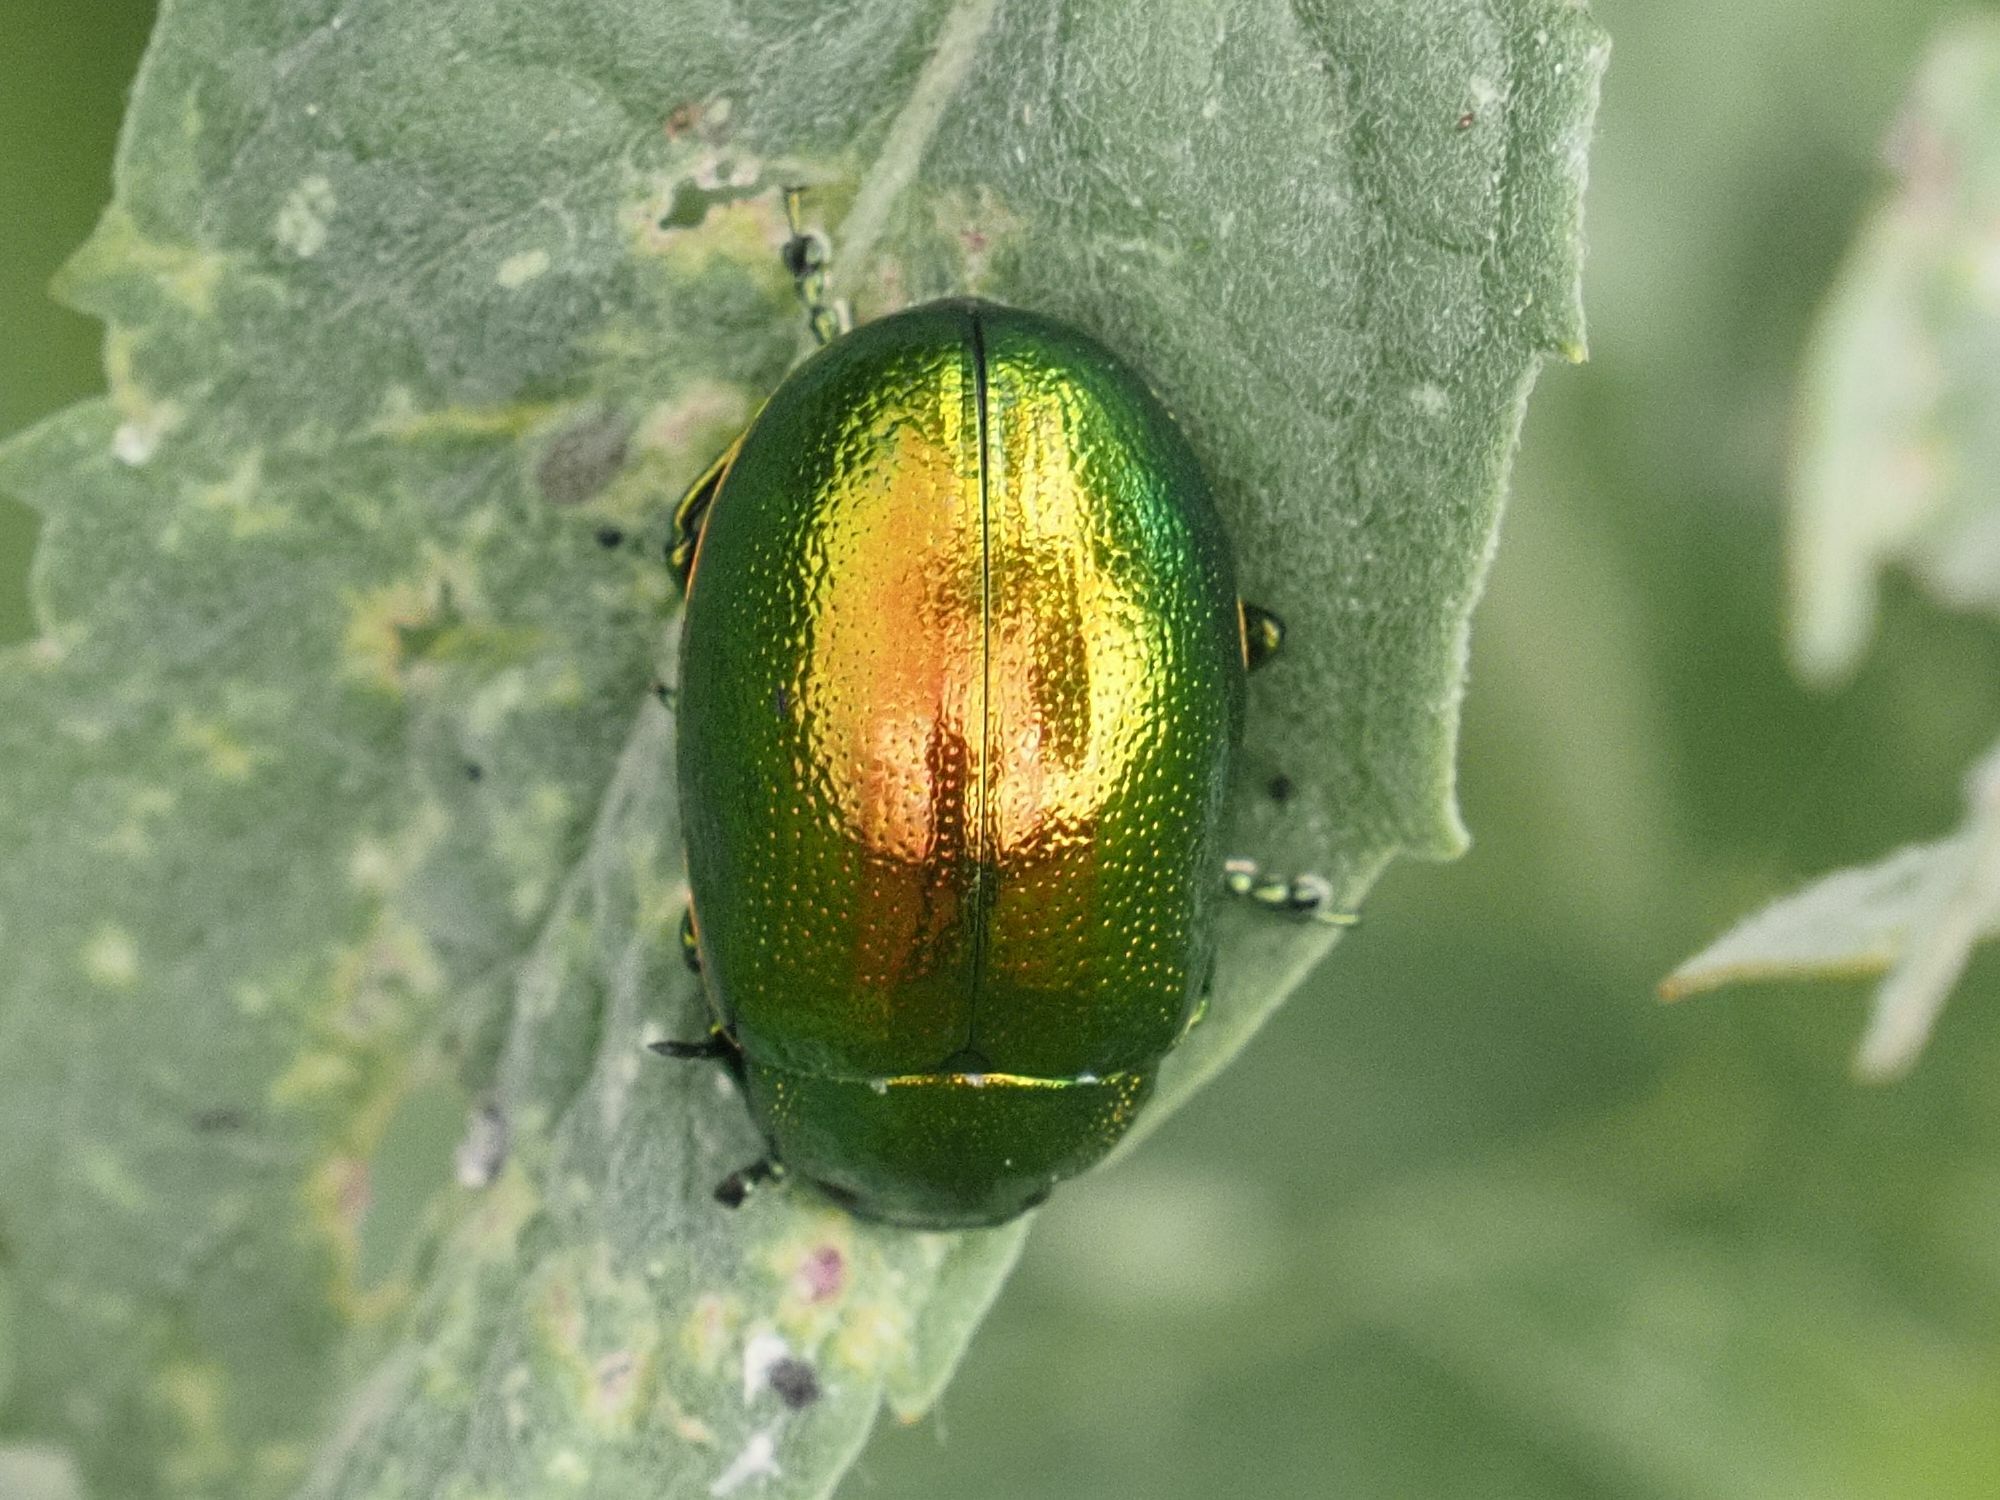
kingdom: Animalia
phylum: Arthropoda
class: Insecta
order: Coleoptera
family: Chrysomelidae
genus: Chrysolina
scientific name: Chrysolina herbacea
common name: Mint leaf beatle
